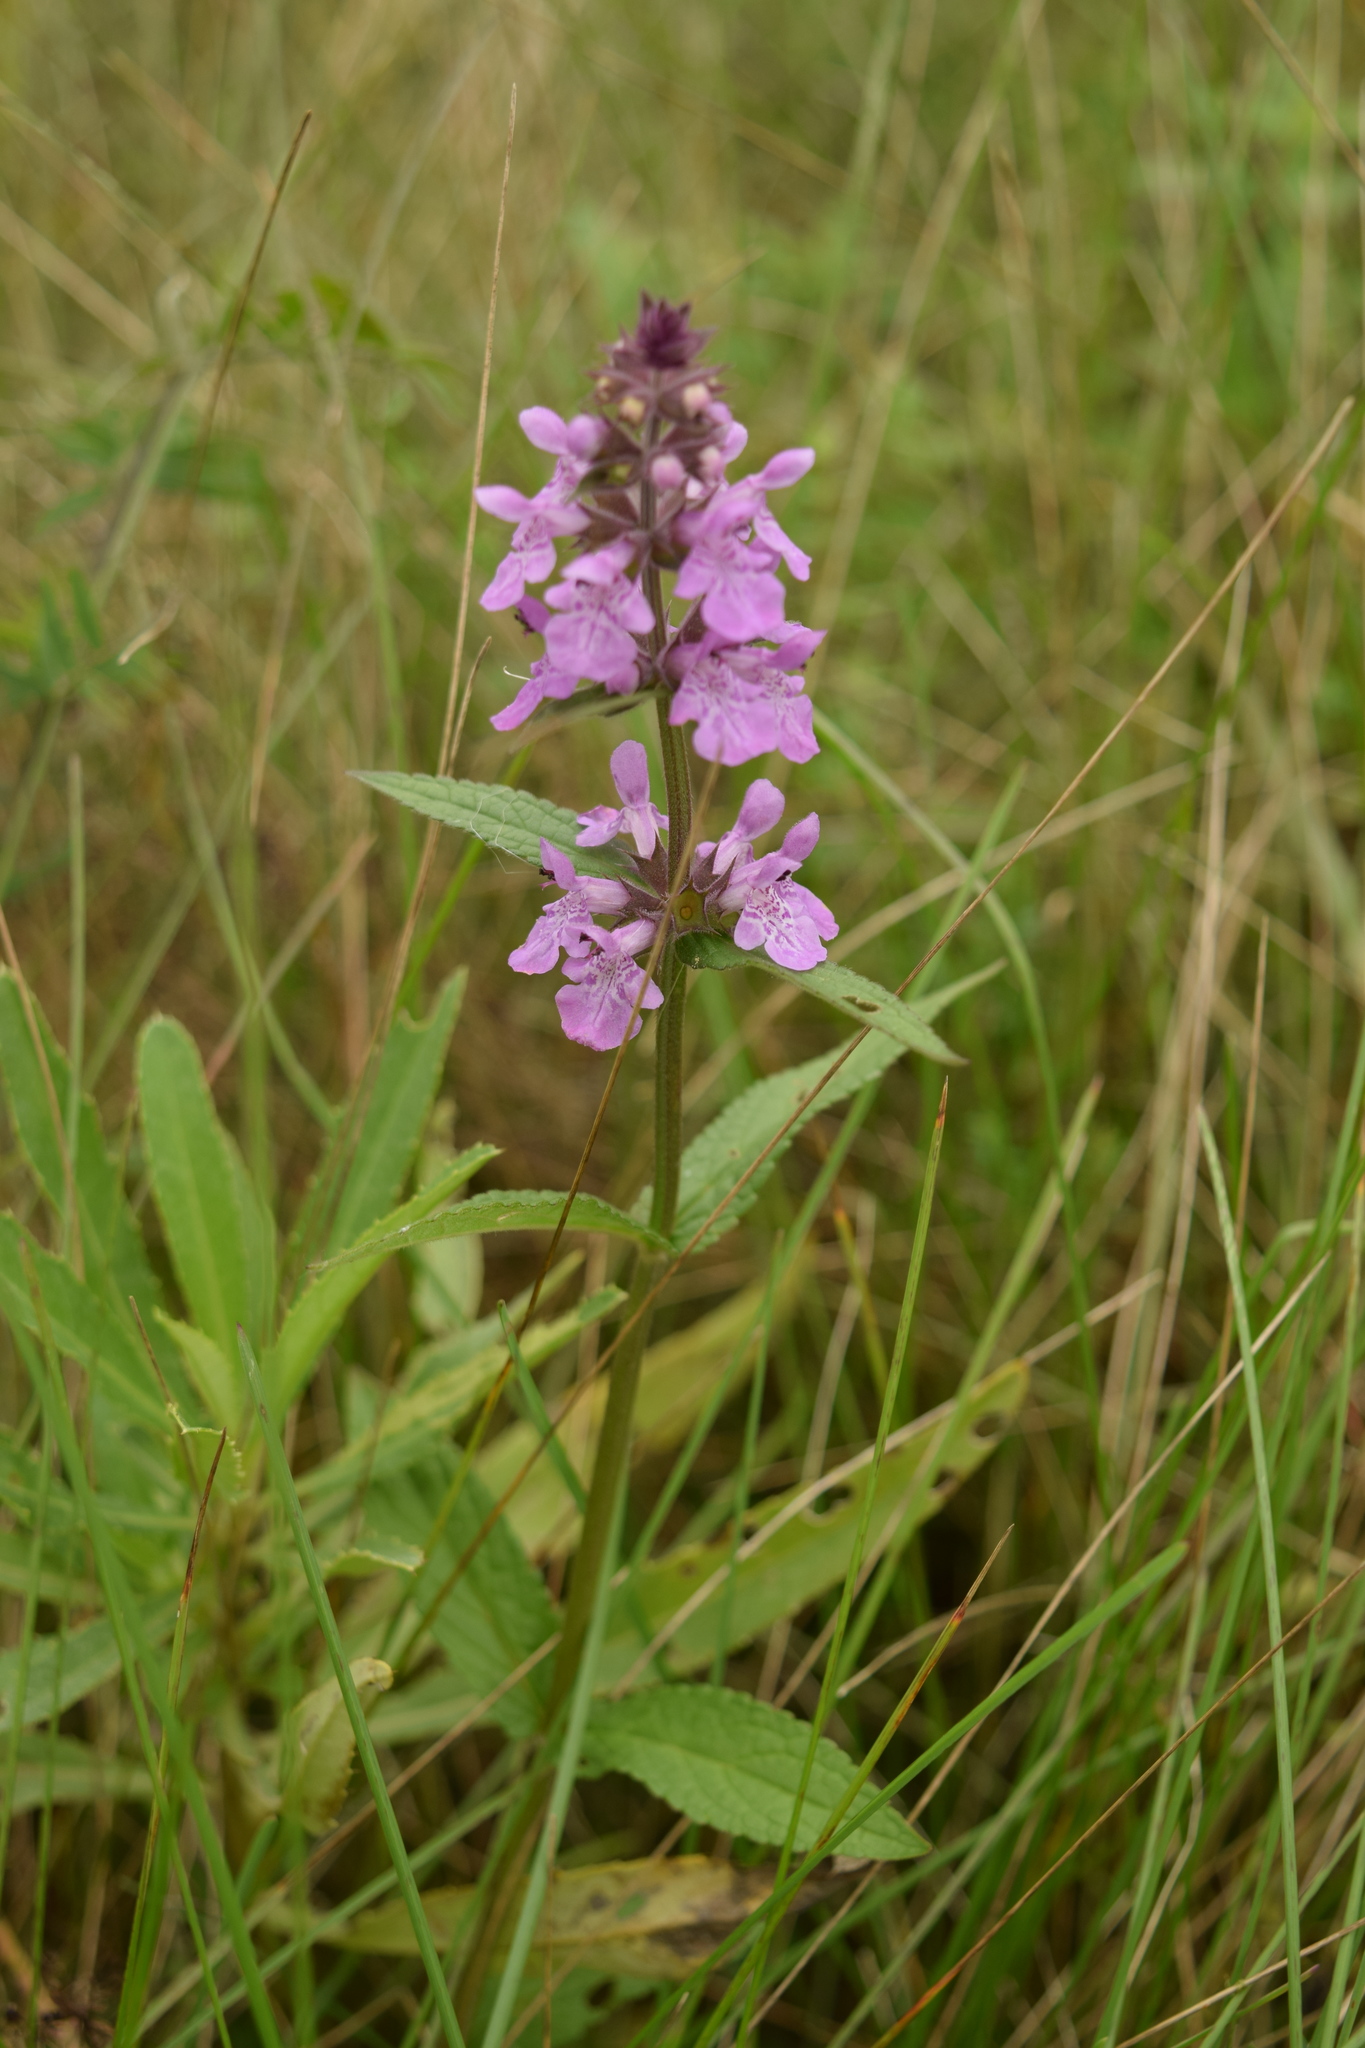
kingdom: Plantae
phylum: Tracheophyta
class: Magnoliopsida
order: Lamiales
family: Lamiaceae
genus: Stachys
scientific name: Stachys palustris
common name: Marsh woundwort
